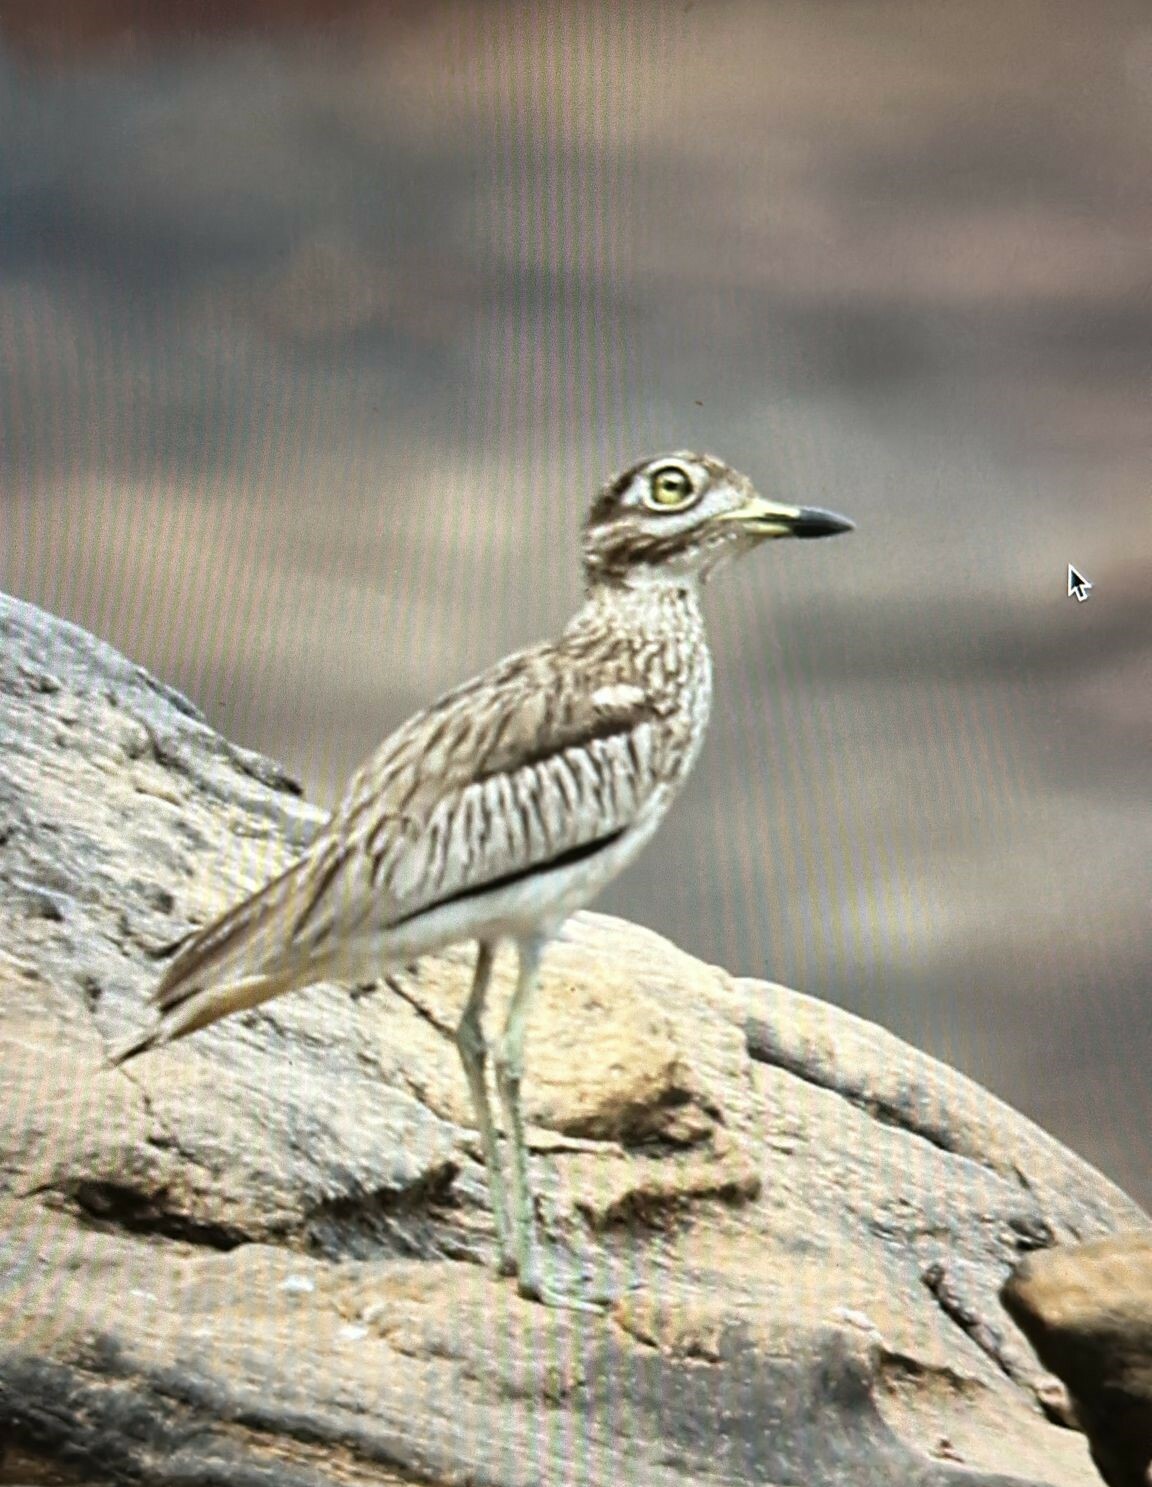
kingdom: Animalia
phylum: Chordata
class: Aves
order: Charadriiformes
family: Burhinidae
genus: Burhinus
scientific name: Burhinus senegalensis
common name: Senegal thick-knee
